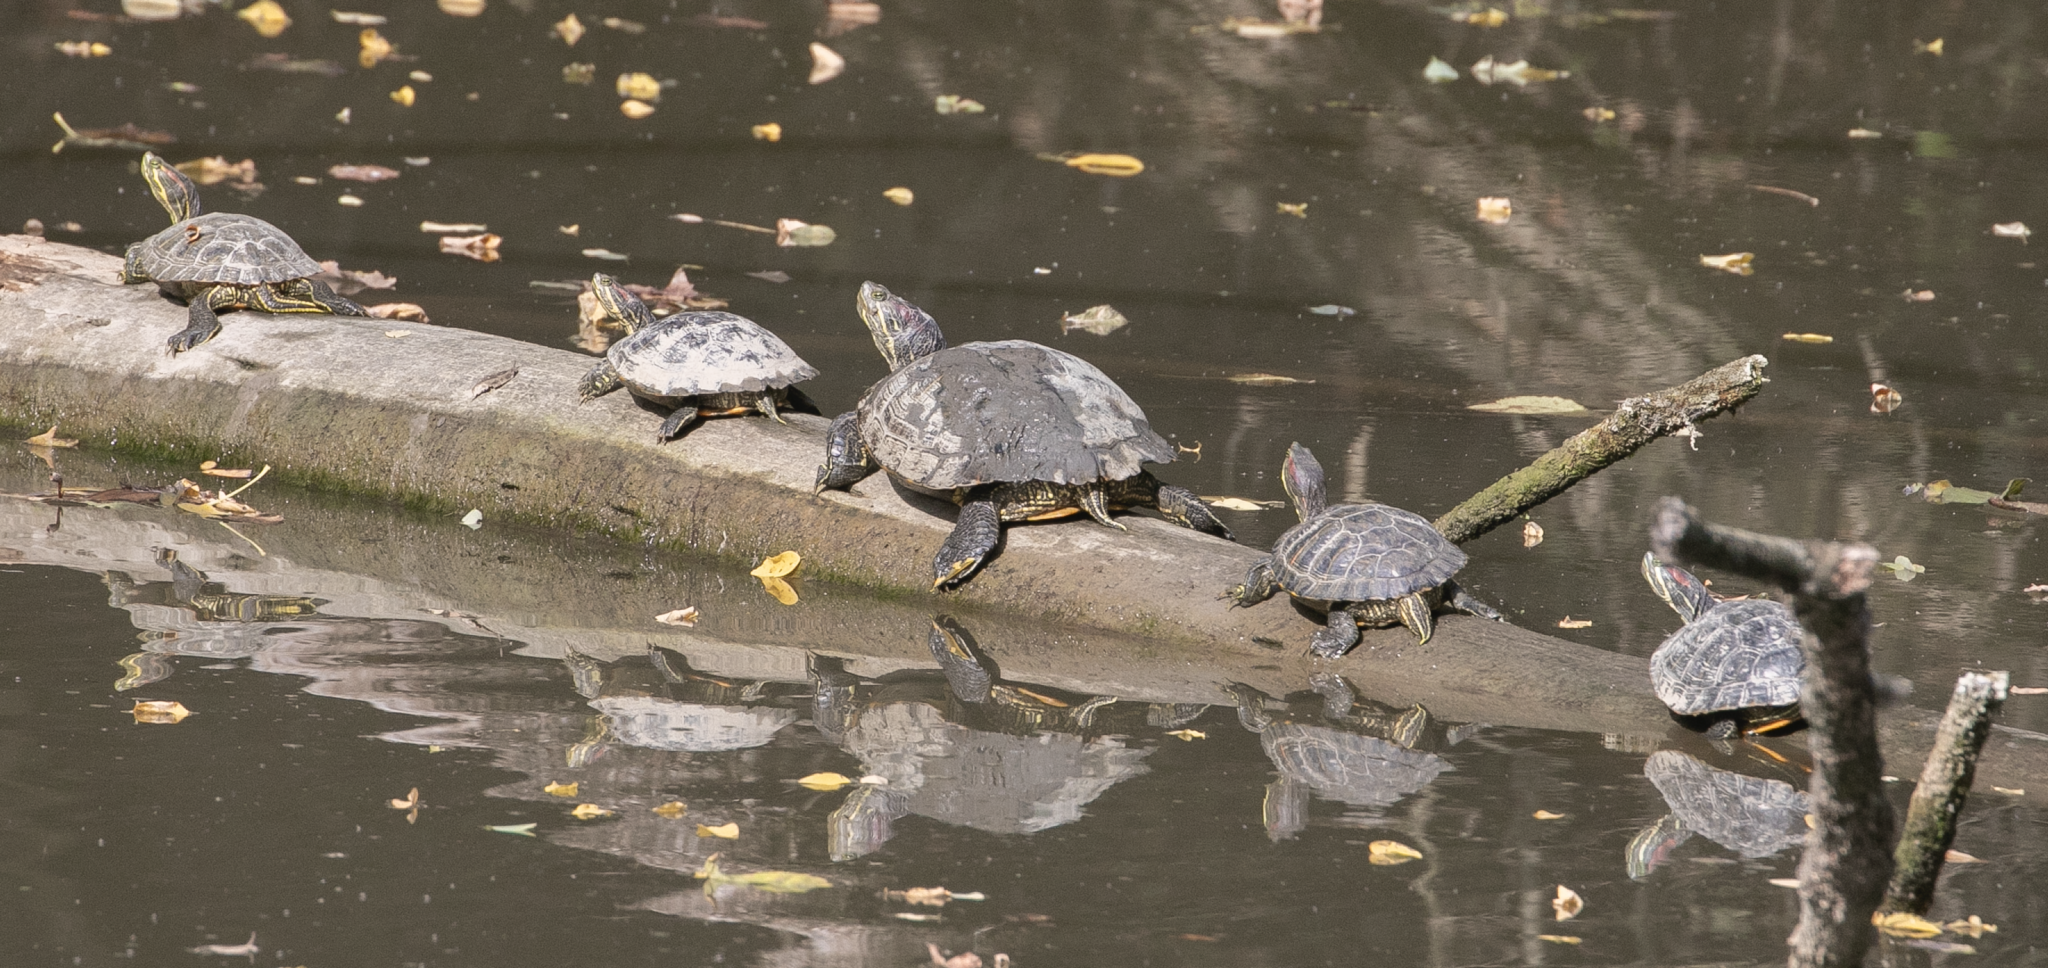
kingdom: Animalia
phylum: Chordata
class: Testudines
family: Emydidae
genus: Trachemys
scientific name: Trachemys scripta
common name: Slider
